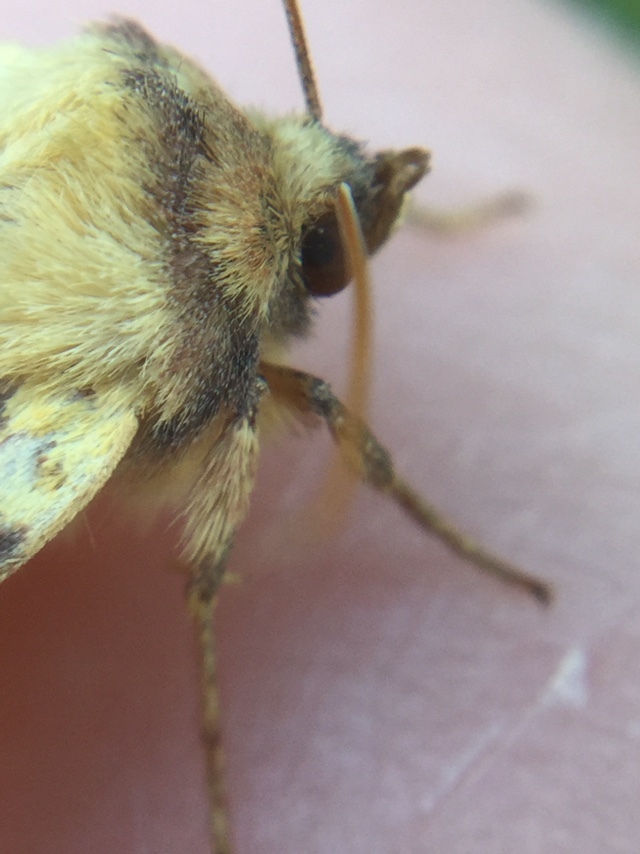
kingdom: Animalia
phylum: Arthropoda
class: Insecta
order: Lepidoptera
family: Noctuidae
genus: Xanthia
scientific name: Xanthia tatago
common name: Pink-banded sallow
